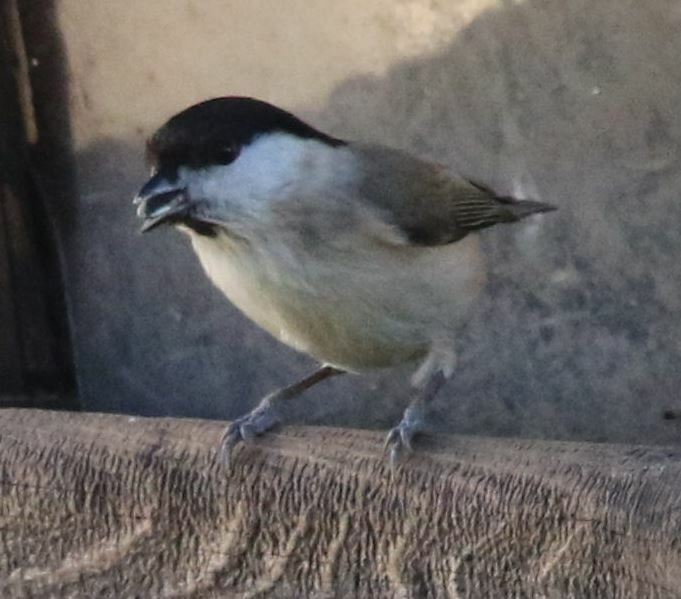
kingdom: Animalia
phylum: Chordata
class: Aves
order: Passeriformes
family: Paridae
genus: Poecile
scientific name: Poecile palustris
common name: Marsh tit
